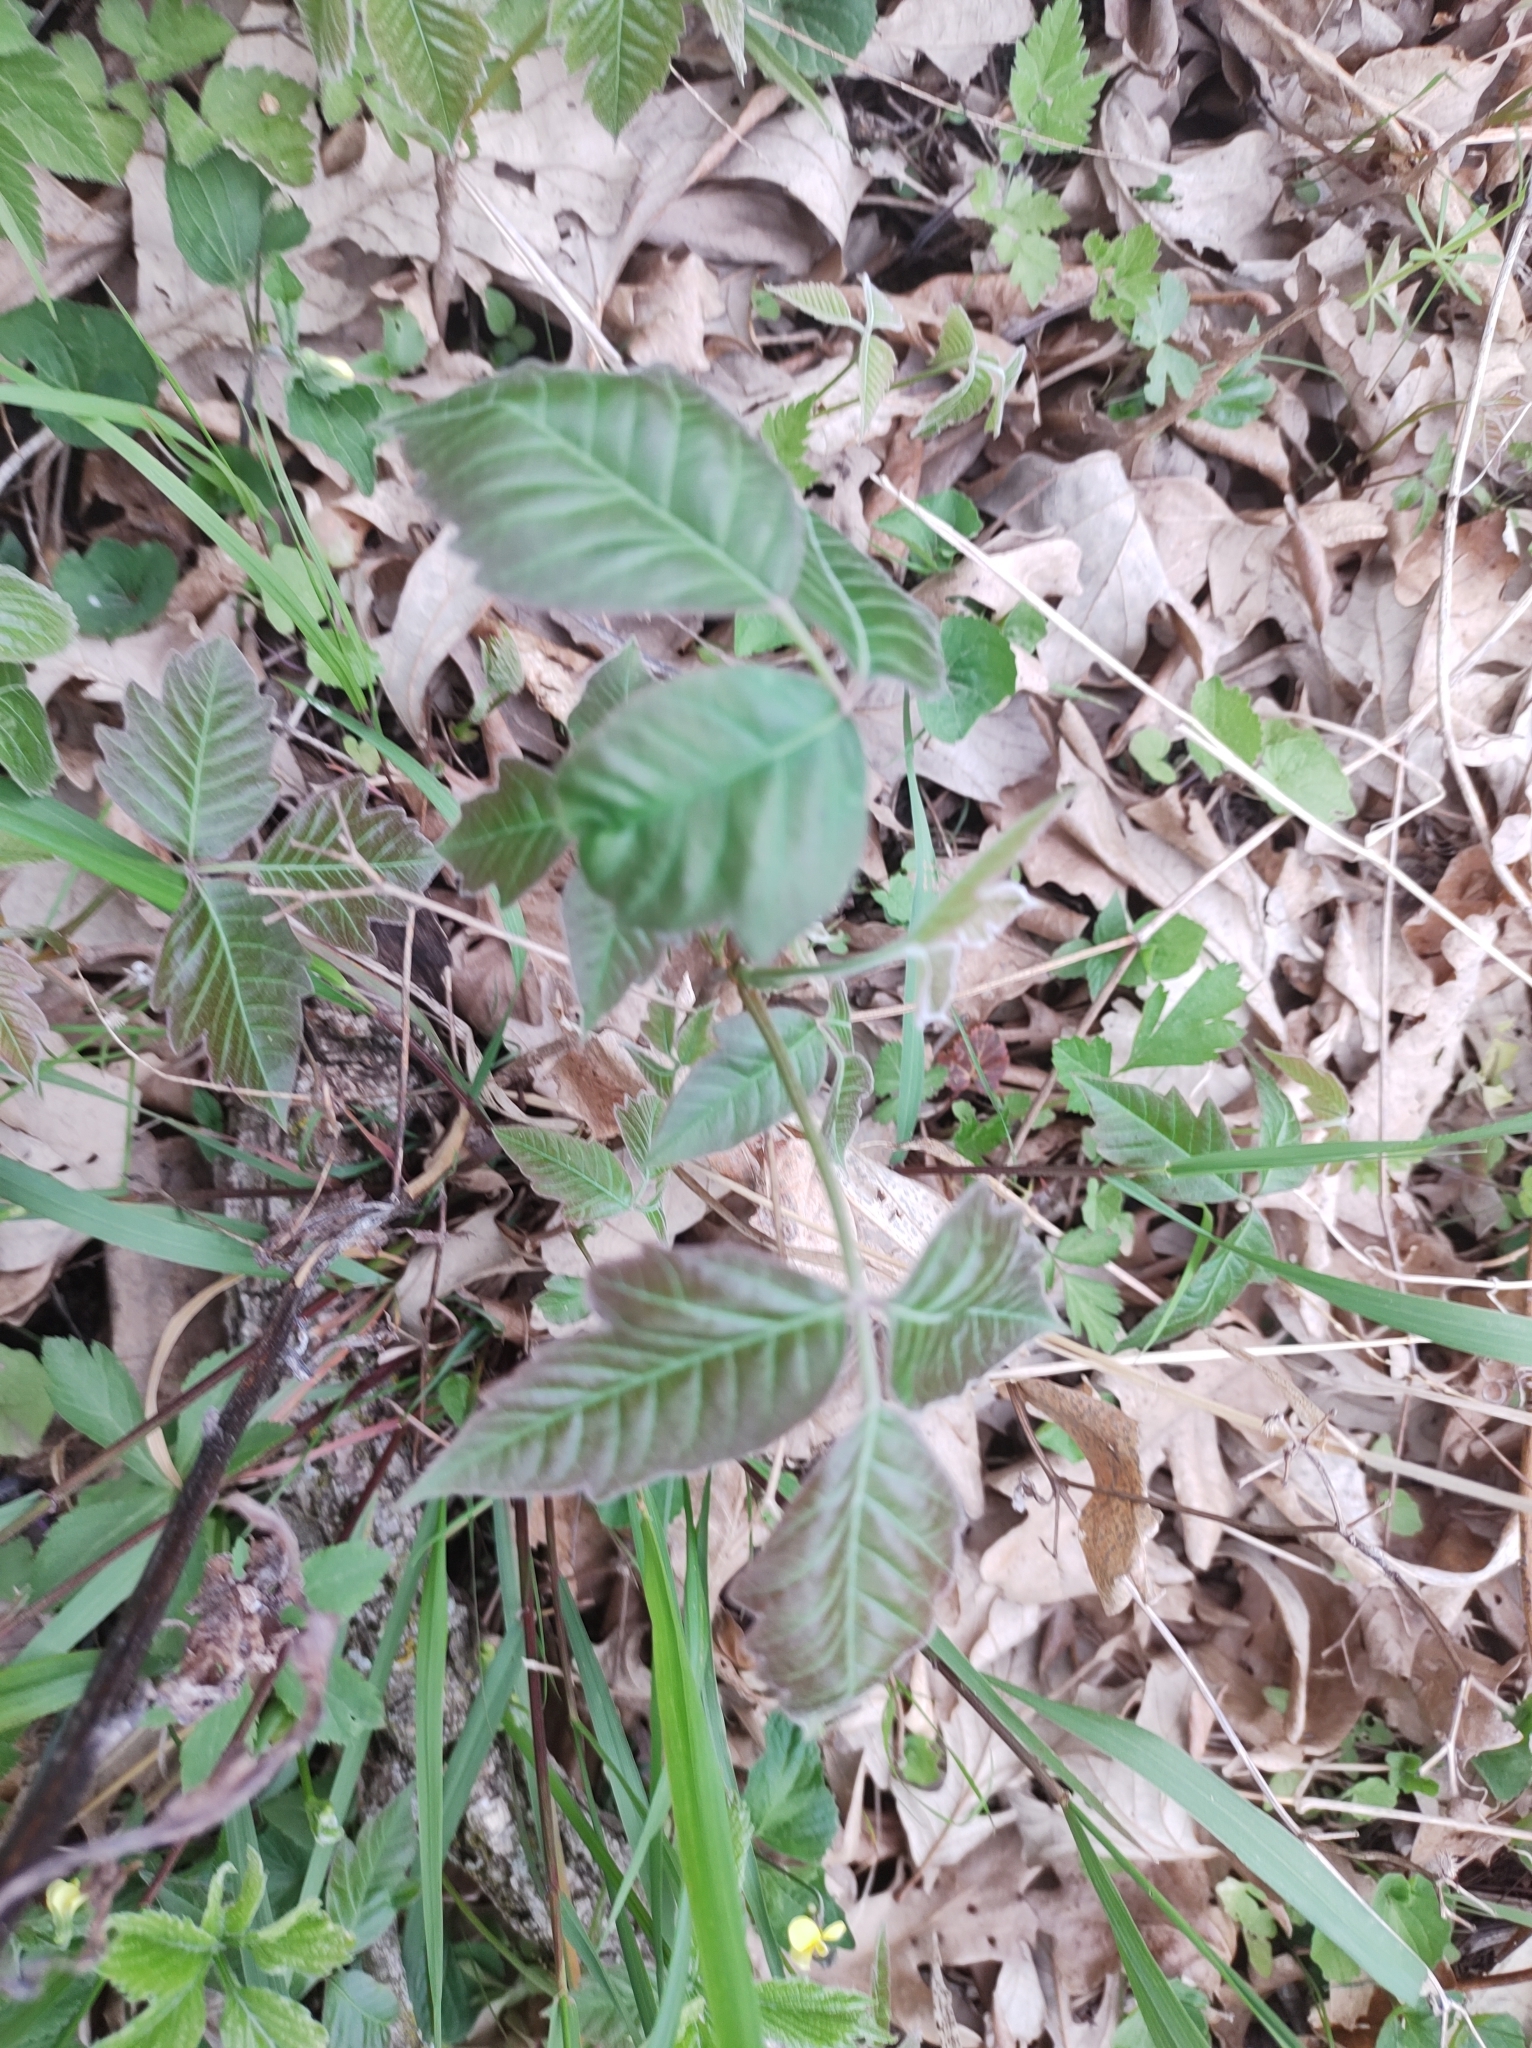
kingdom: Plantae
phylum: Tracheophyta
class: Magnoliopsida
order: Sapindales
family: Anacardiaceae
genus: Toxicodendron
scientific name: Toxicodendron radicans
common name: Poison ivy
